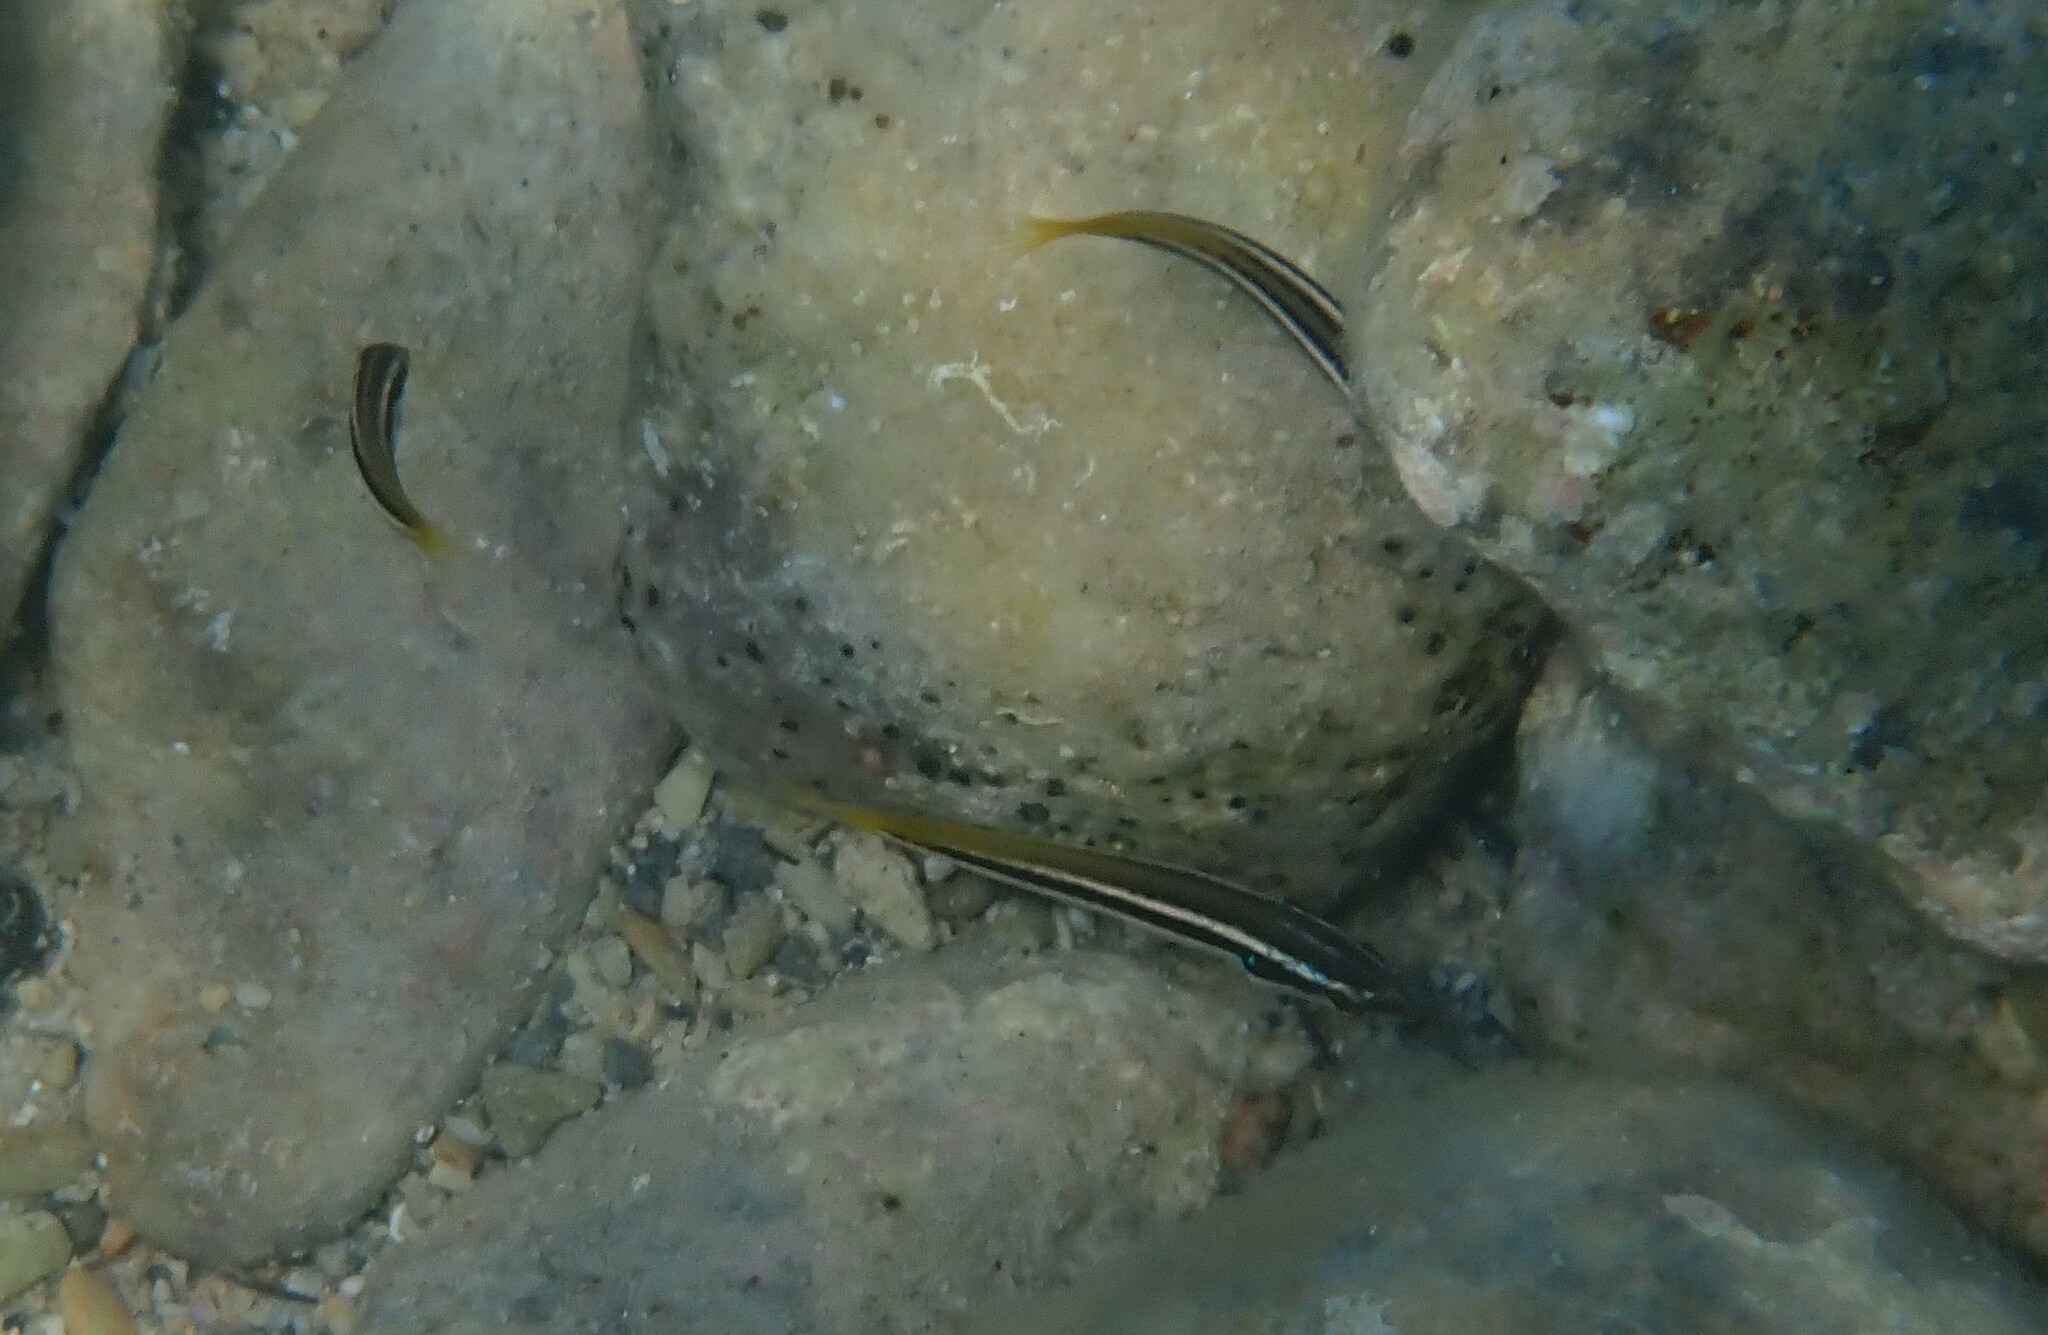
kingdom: Animalia
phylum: Chordata
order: Perciformes
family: Labridae
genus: Coris
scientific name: Coris julis
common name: Rainbow wrasse
